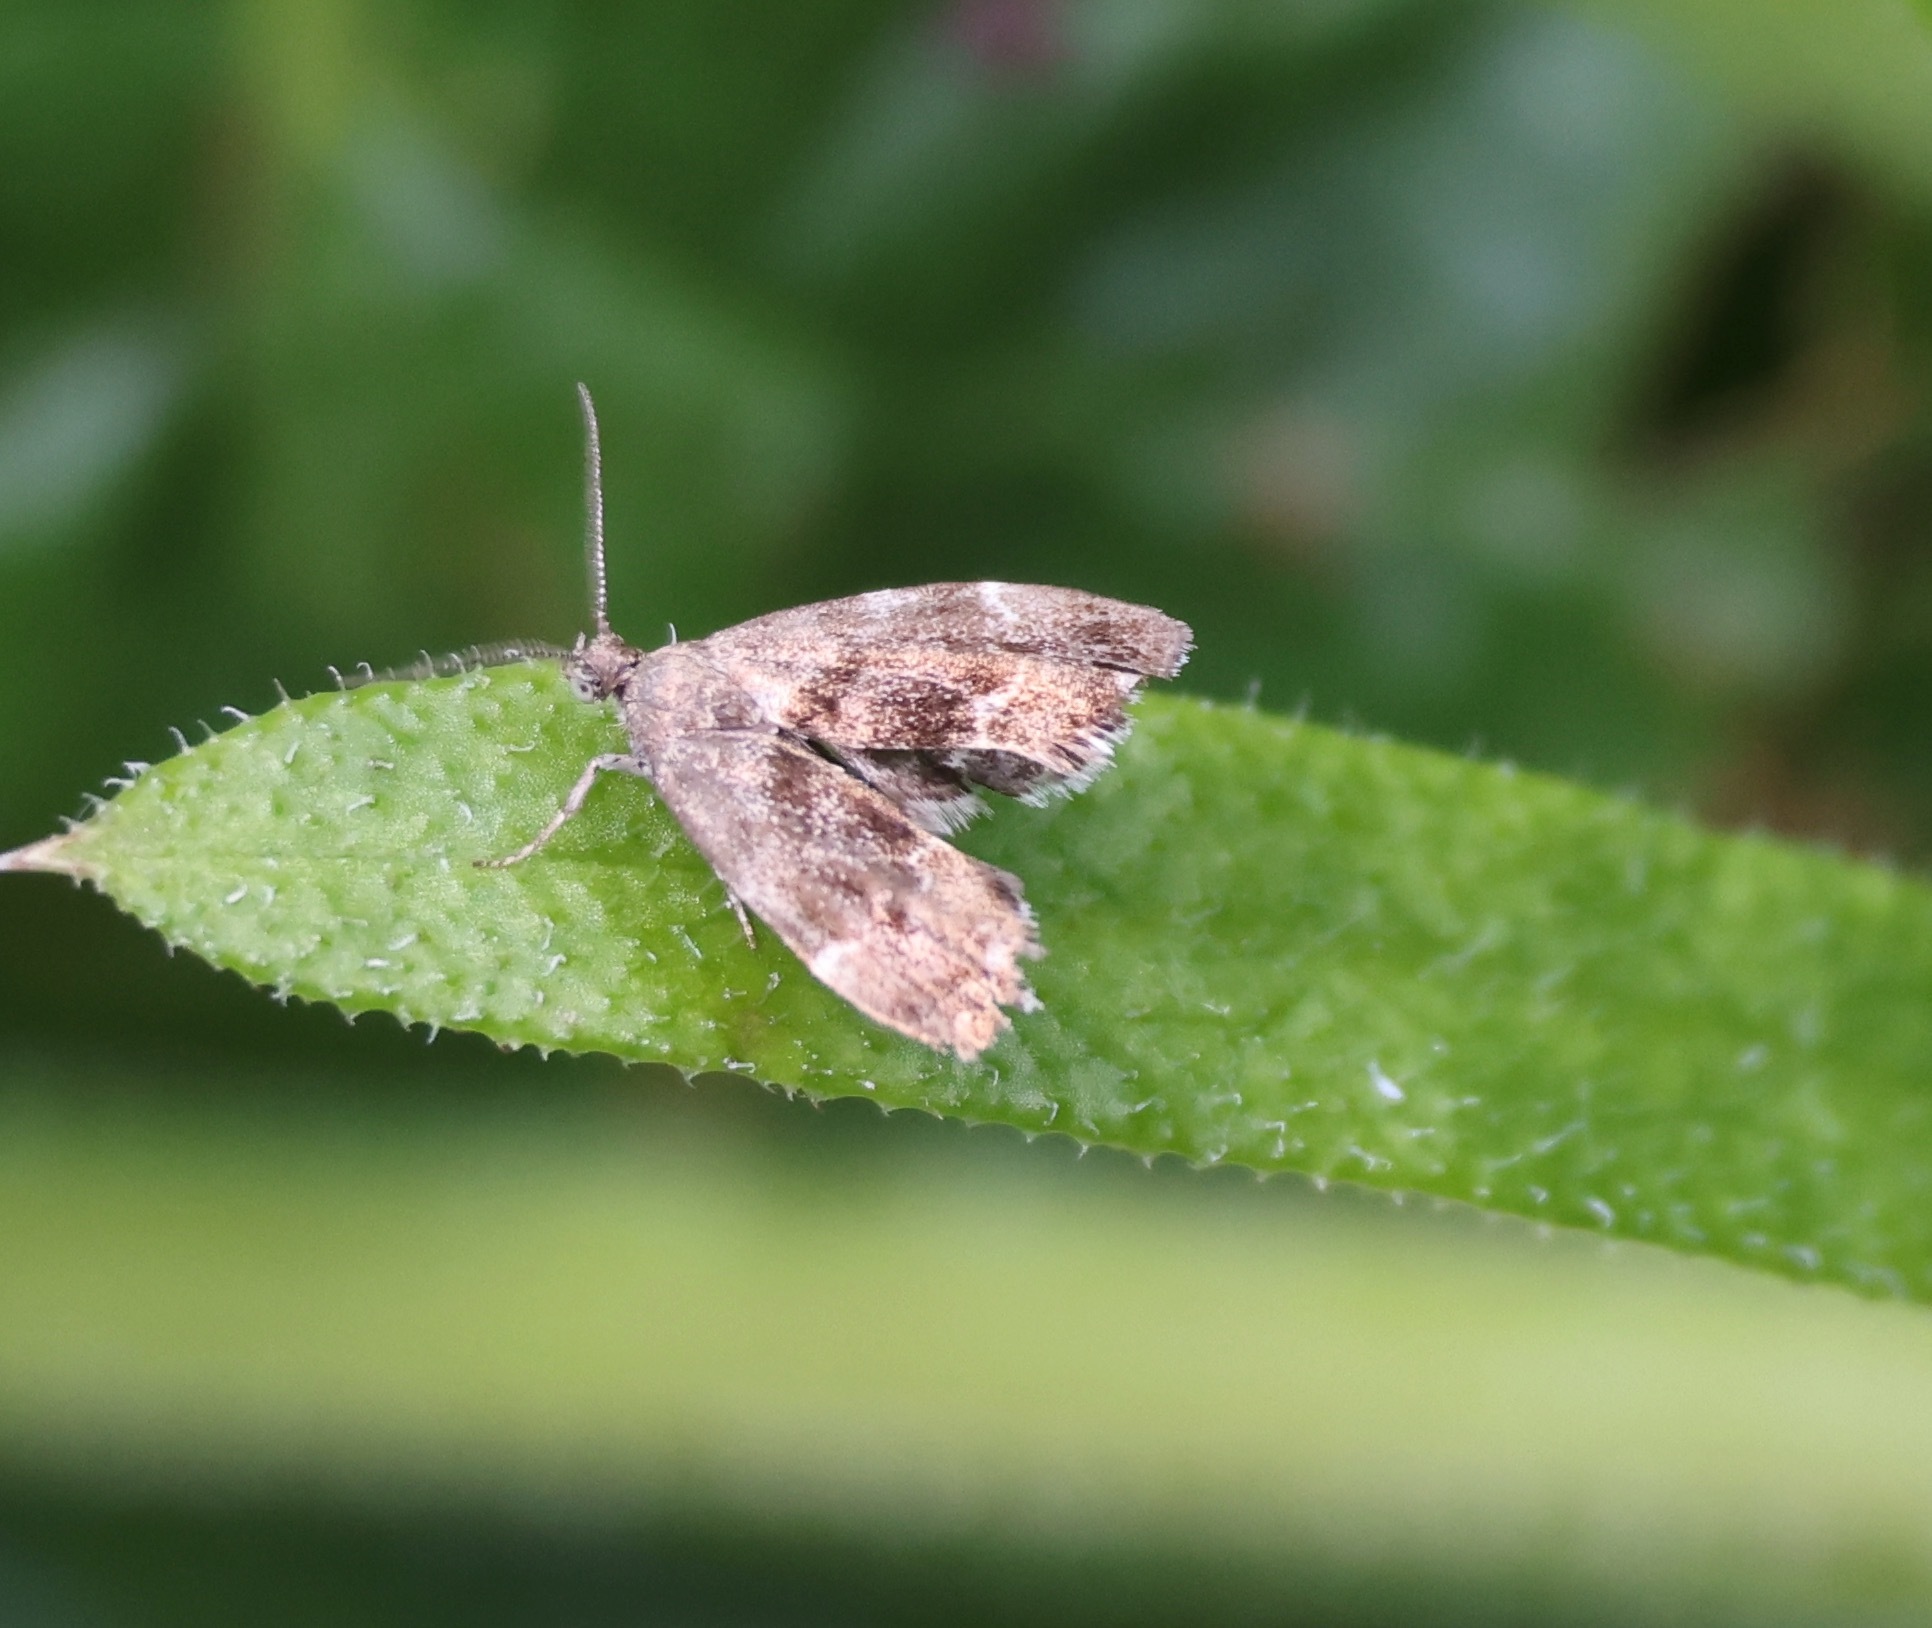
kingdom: Animalia
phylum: Arthropoda
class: Insecta
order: Lepidoptera
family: Choreutidae
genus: Anthophila
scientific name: Anthophila fabriciana
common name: Nettle-tap
